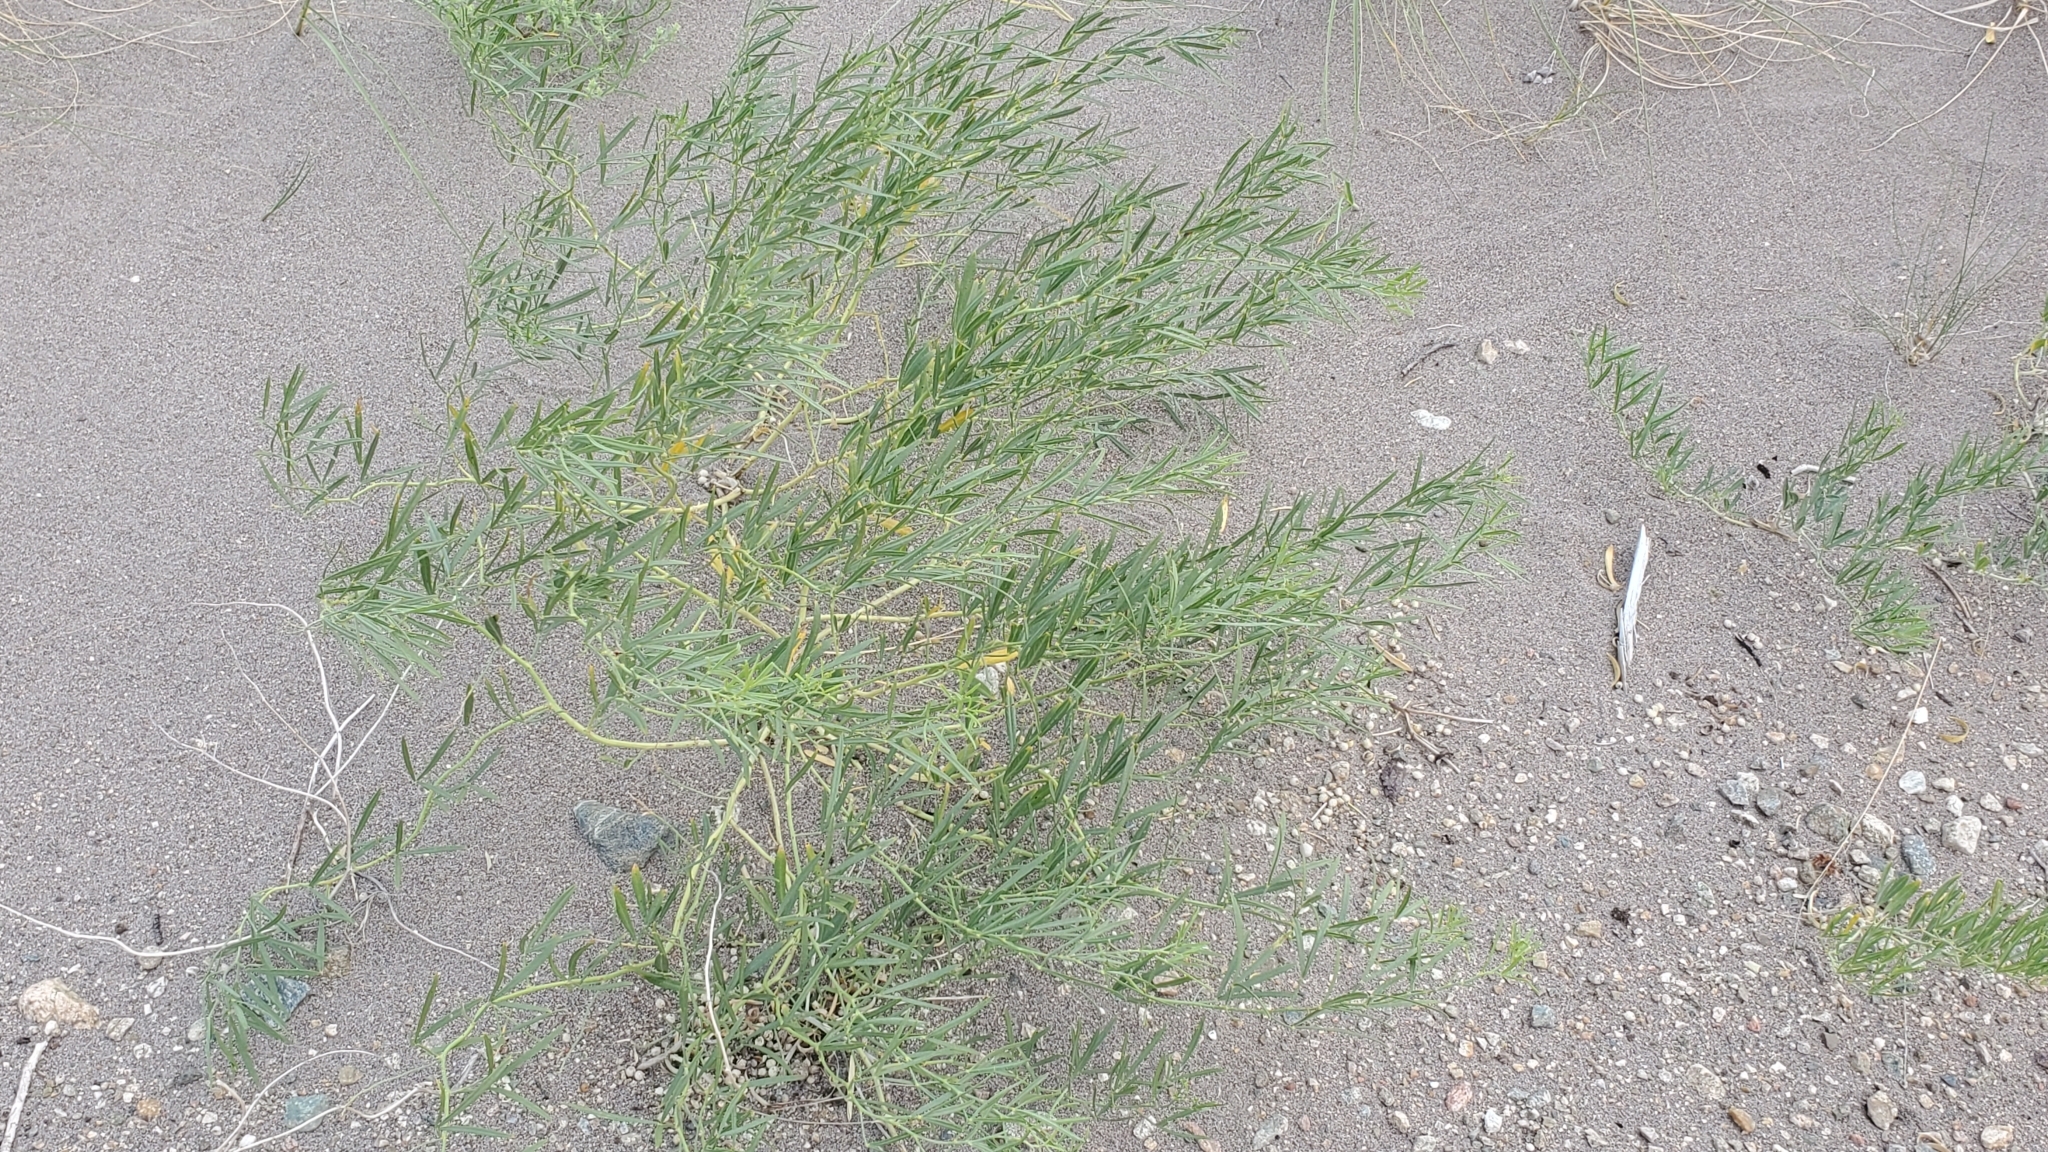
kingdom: Plantae
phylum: Tracheophyta
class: Magnoliopsida
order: Fabales
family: Fabaceae
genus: Ladeania
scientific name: Ladeania lanceolata
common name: Dune scurf-pea
